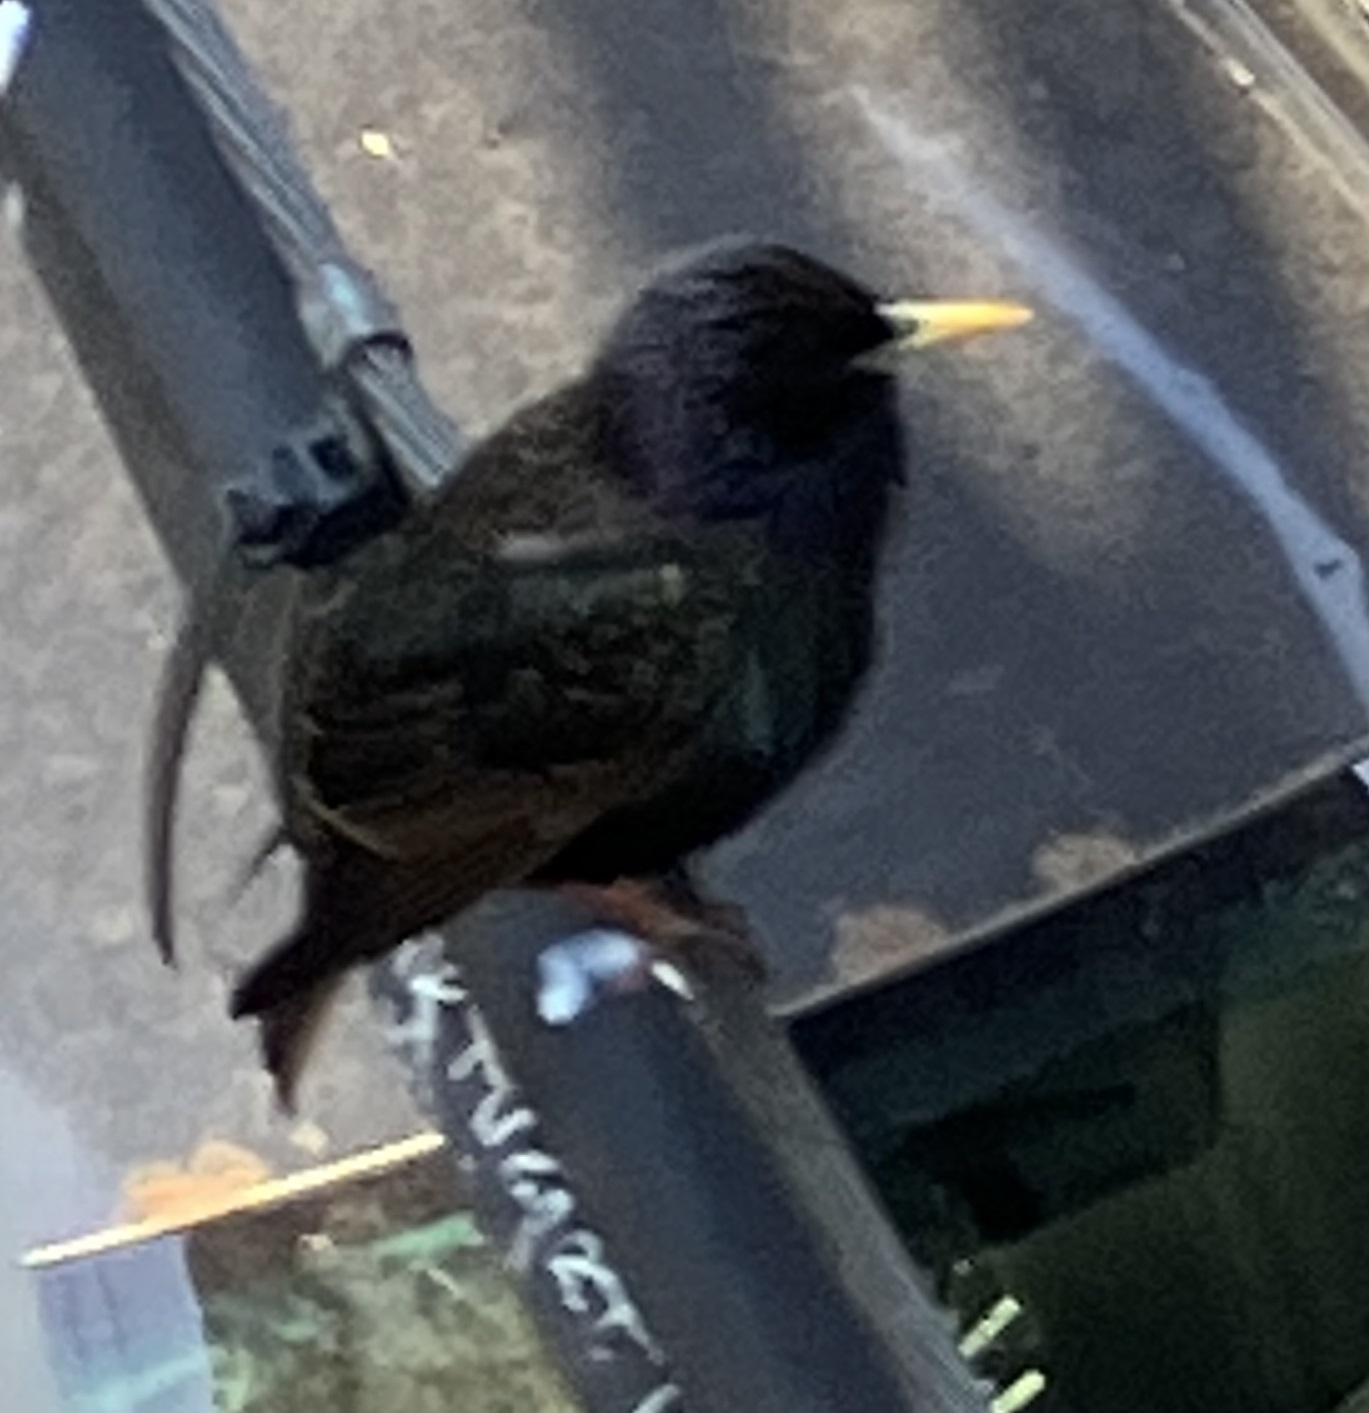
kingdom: Animalia
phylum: Chordata
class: Aves
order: Passeriformes
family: Sturnidae
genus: Sturnus
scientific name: Sturnus vulgaris
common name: Common starling
